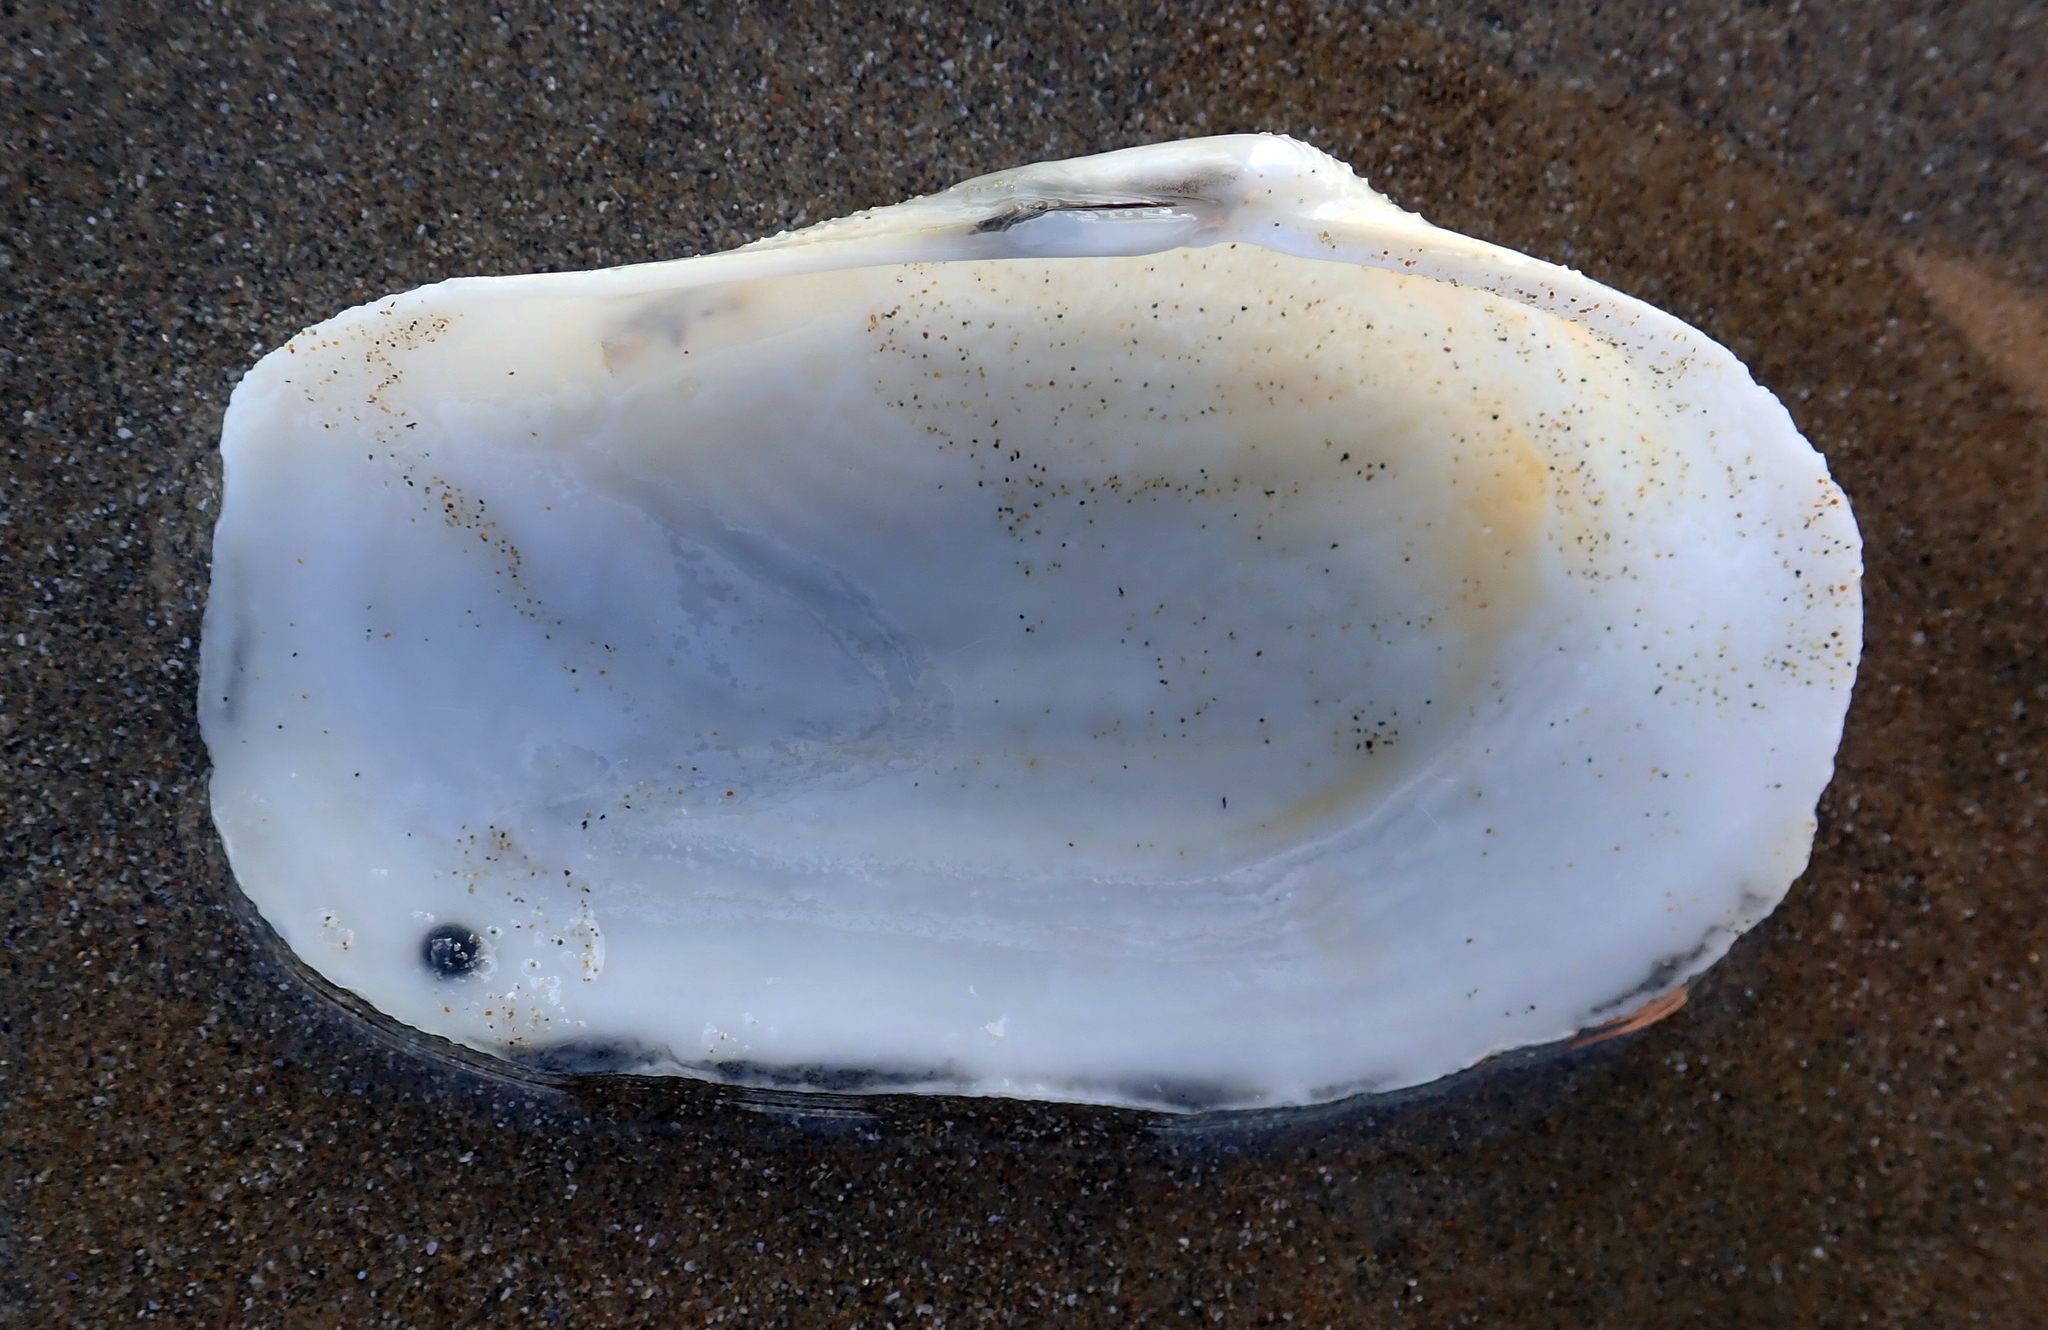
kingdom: Animalia
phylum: Mollusca
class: Bivalvia
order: Adapedonta
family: Hiatellidae
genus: Panopea
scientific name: Panopea zelandica
